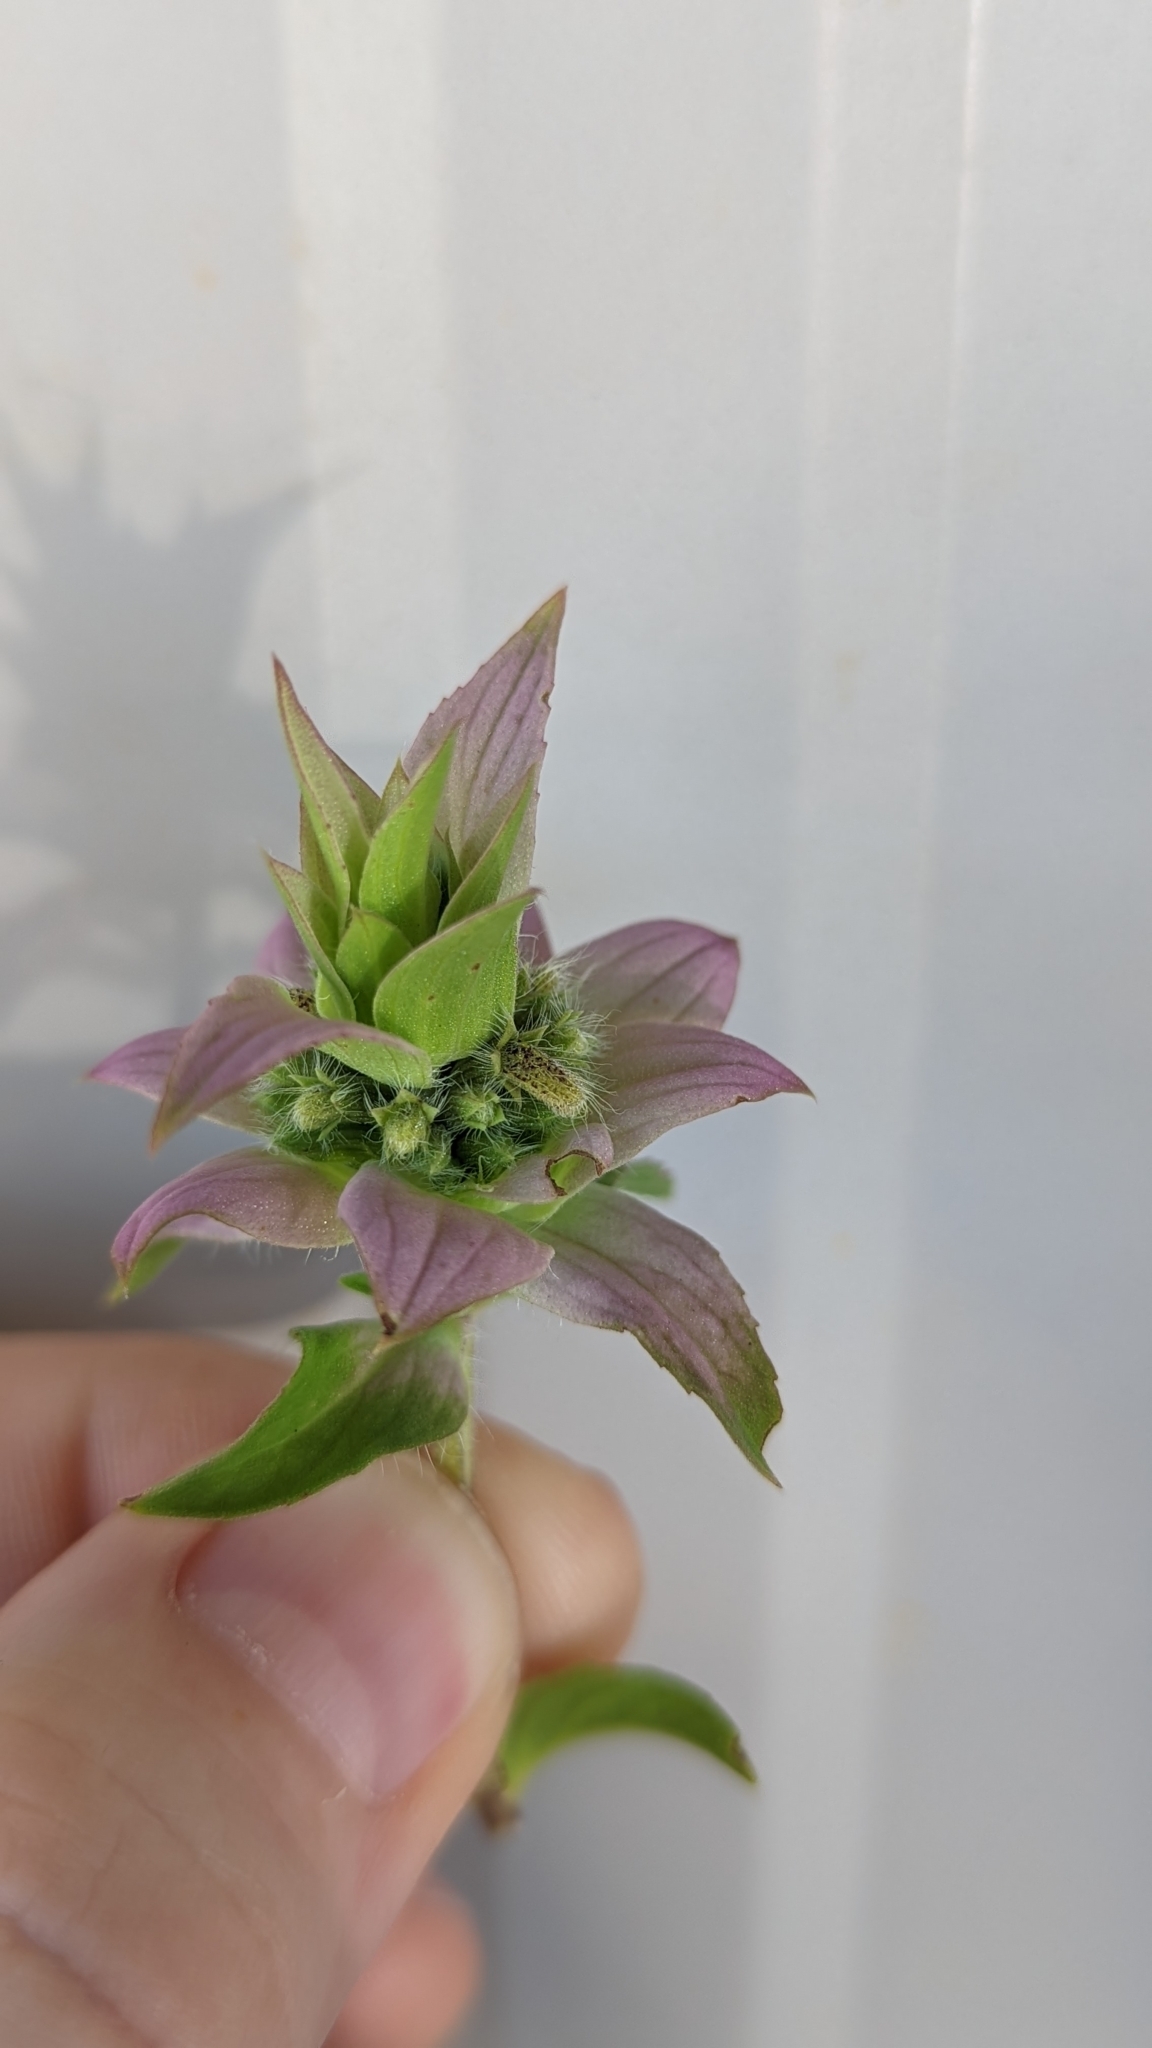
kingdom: Plantae
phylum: Tracheophyta
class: Magnoliopsida
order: Lamiales
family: Lamiaceae
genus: Monarda
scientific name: Monarda punctata
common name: Dotted monarda
